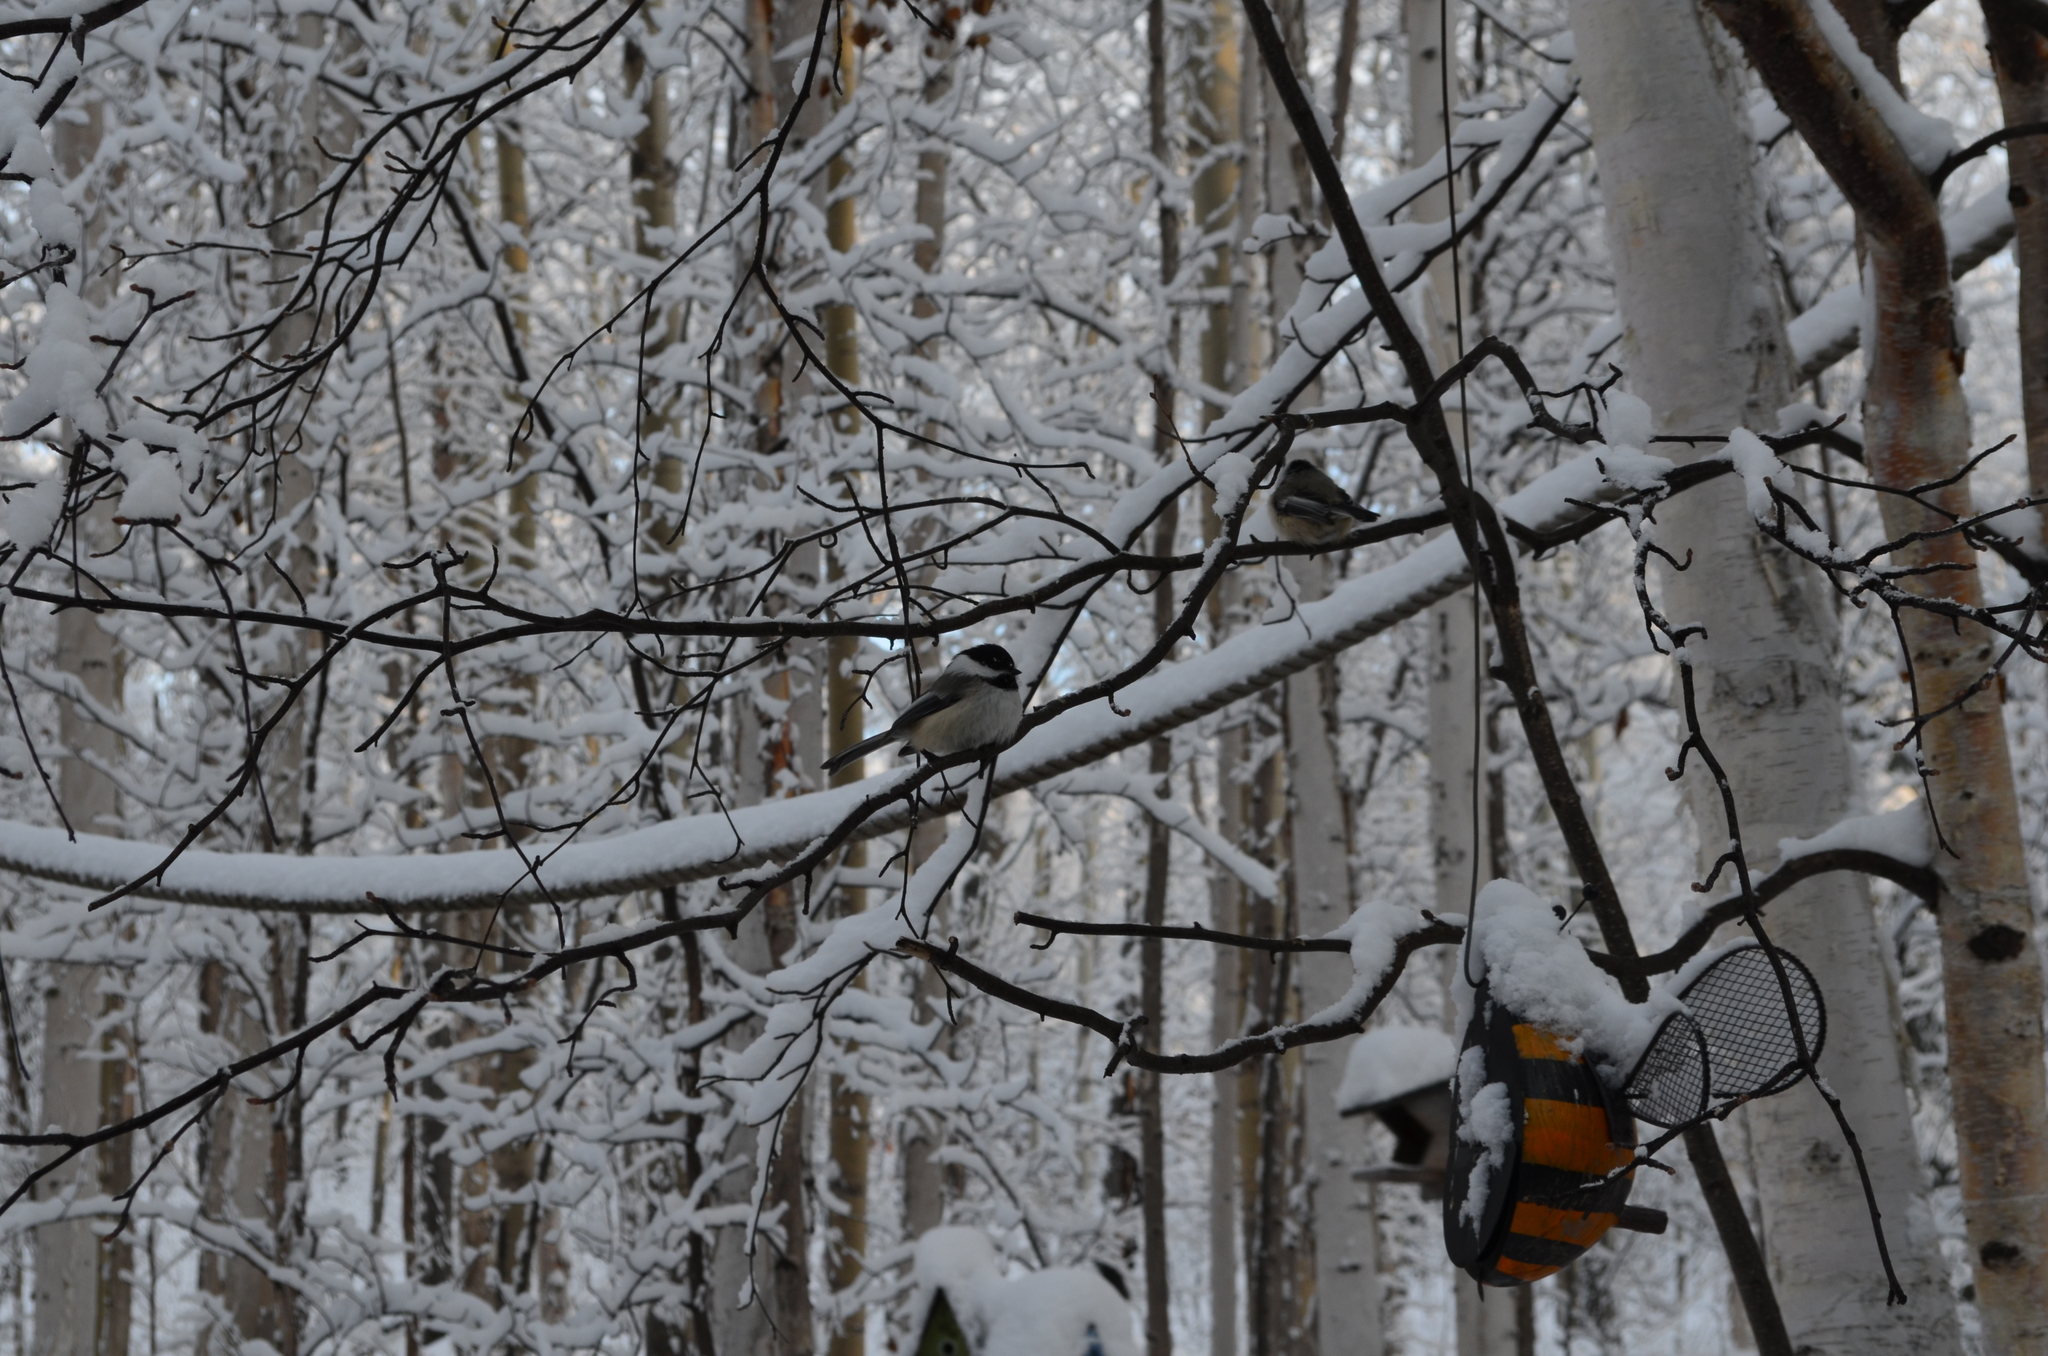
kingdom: Animalia
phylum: Chordata
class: Aves
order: Passeriformes
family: Paridae
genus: Poecile
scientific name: Poecile atricapillus
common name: Black-capped chickadee
